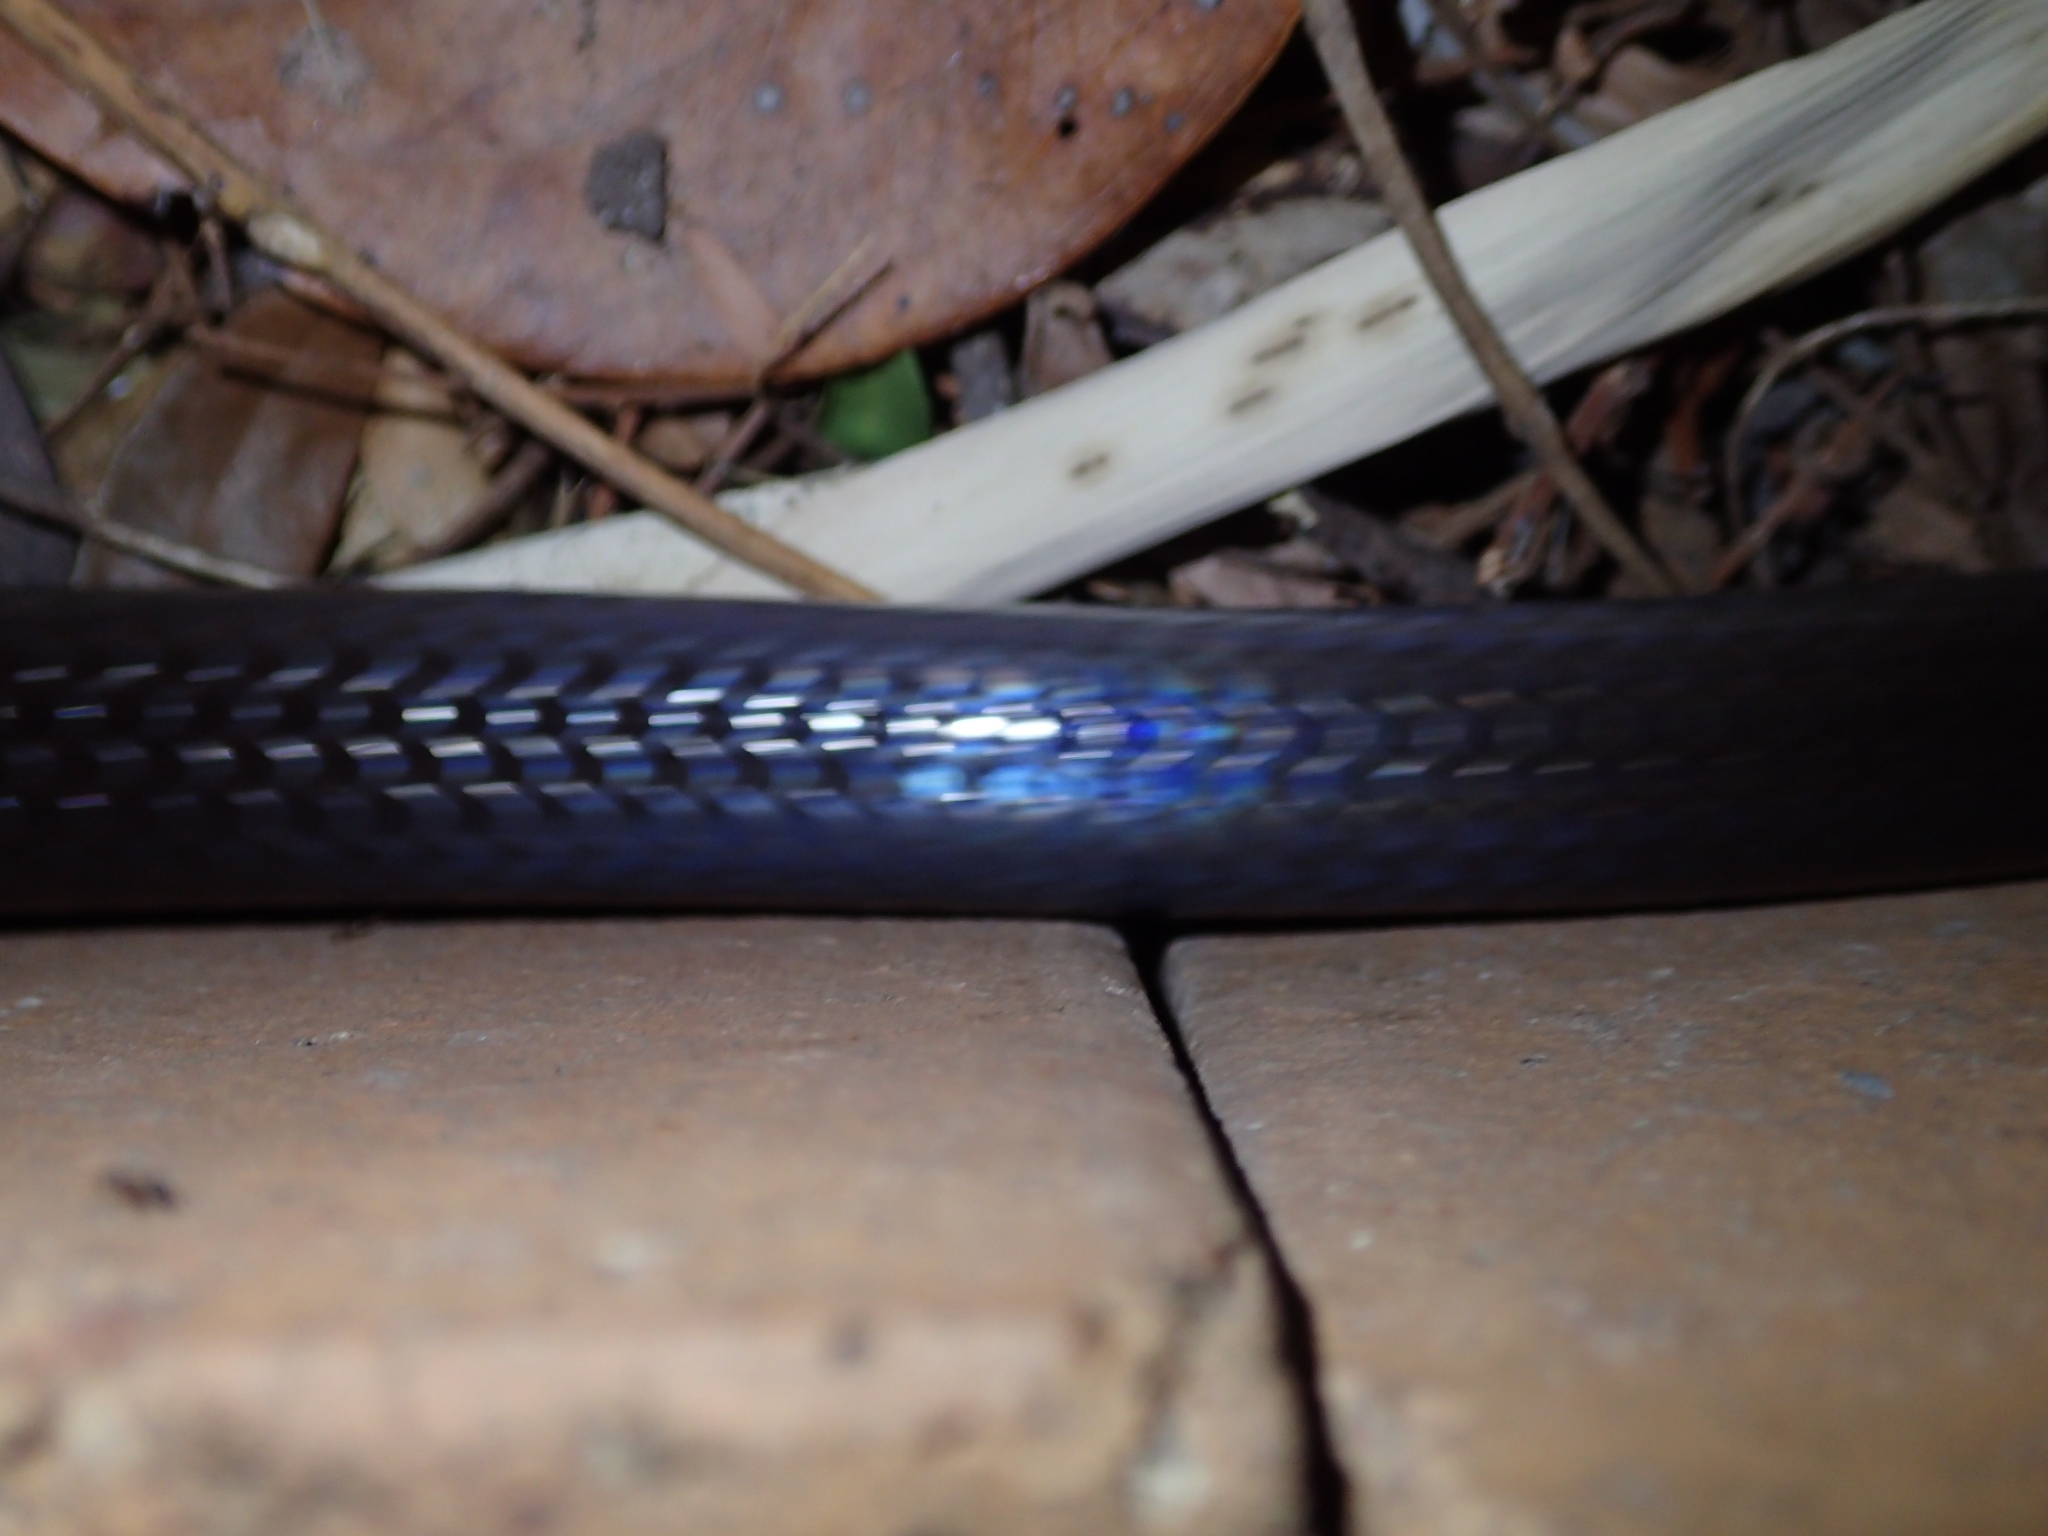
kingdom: Animalia
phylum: Chordata
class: Squamata
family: Colubridae
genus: Stegonotus
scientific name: Stegonotus australis
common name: Australian groundsnake
